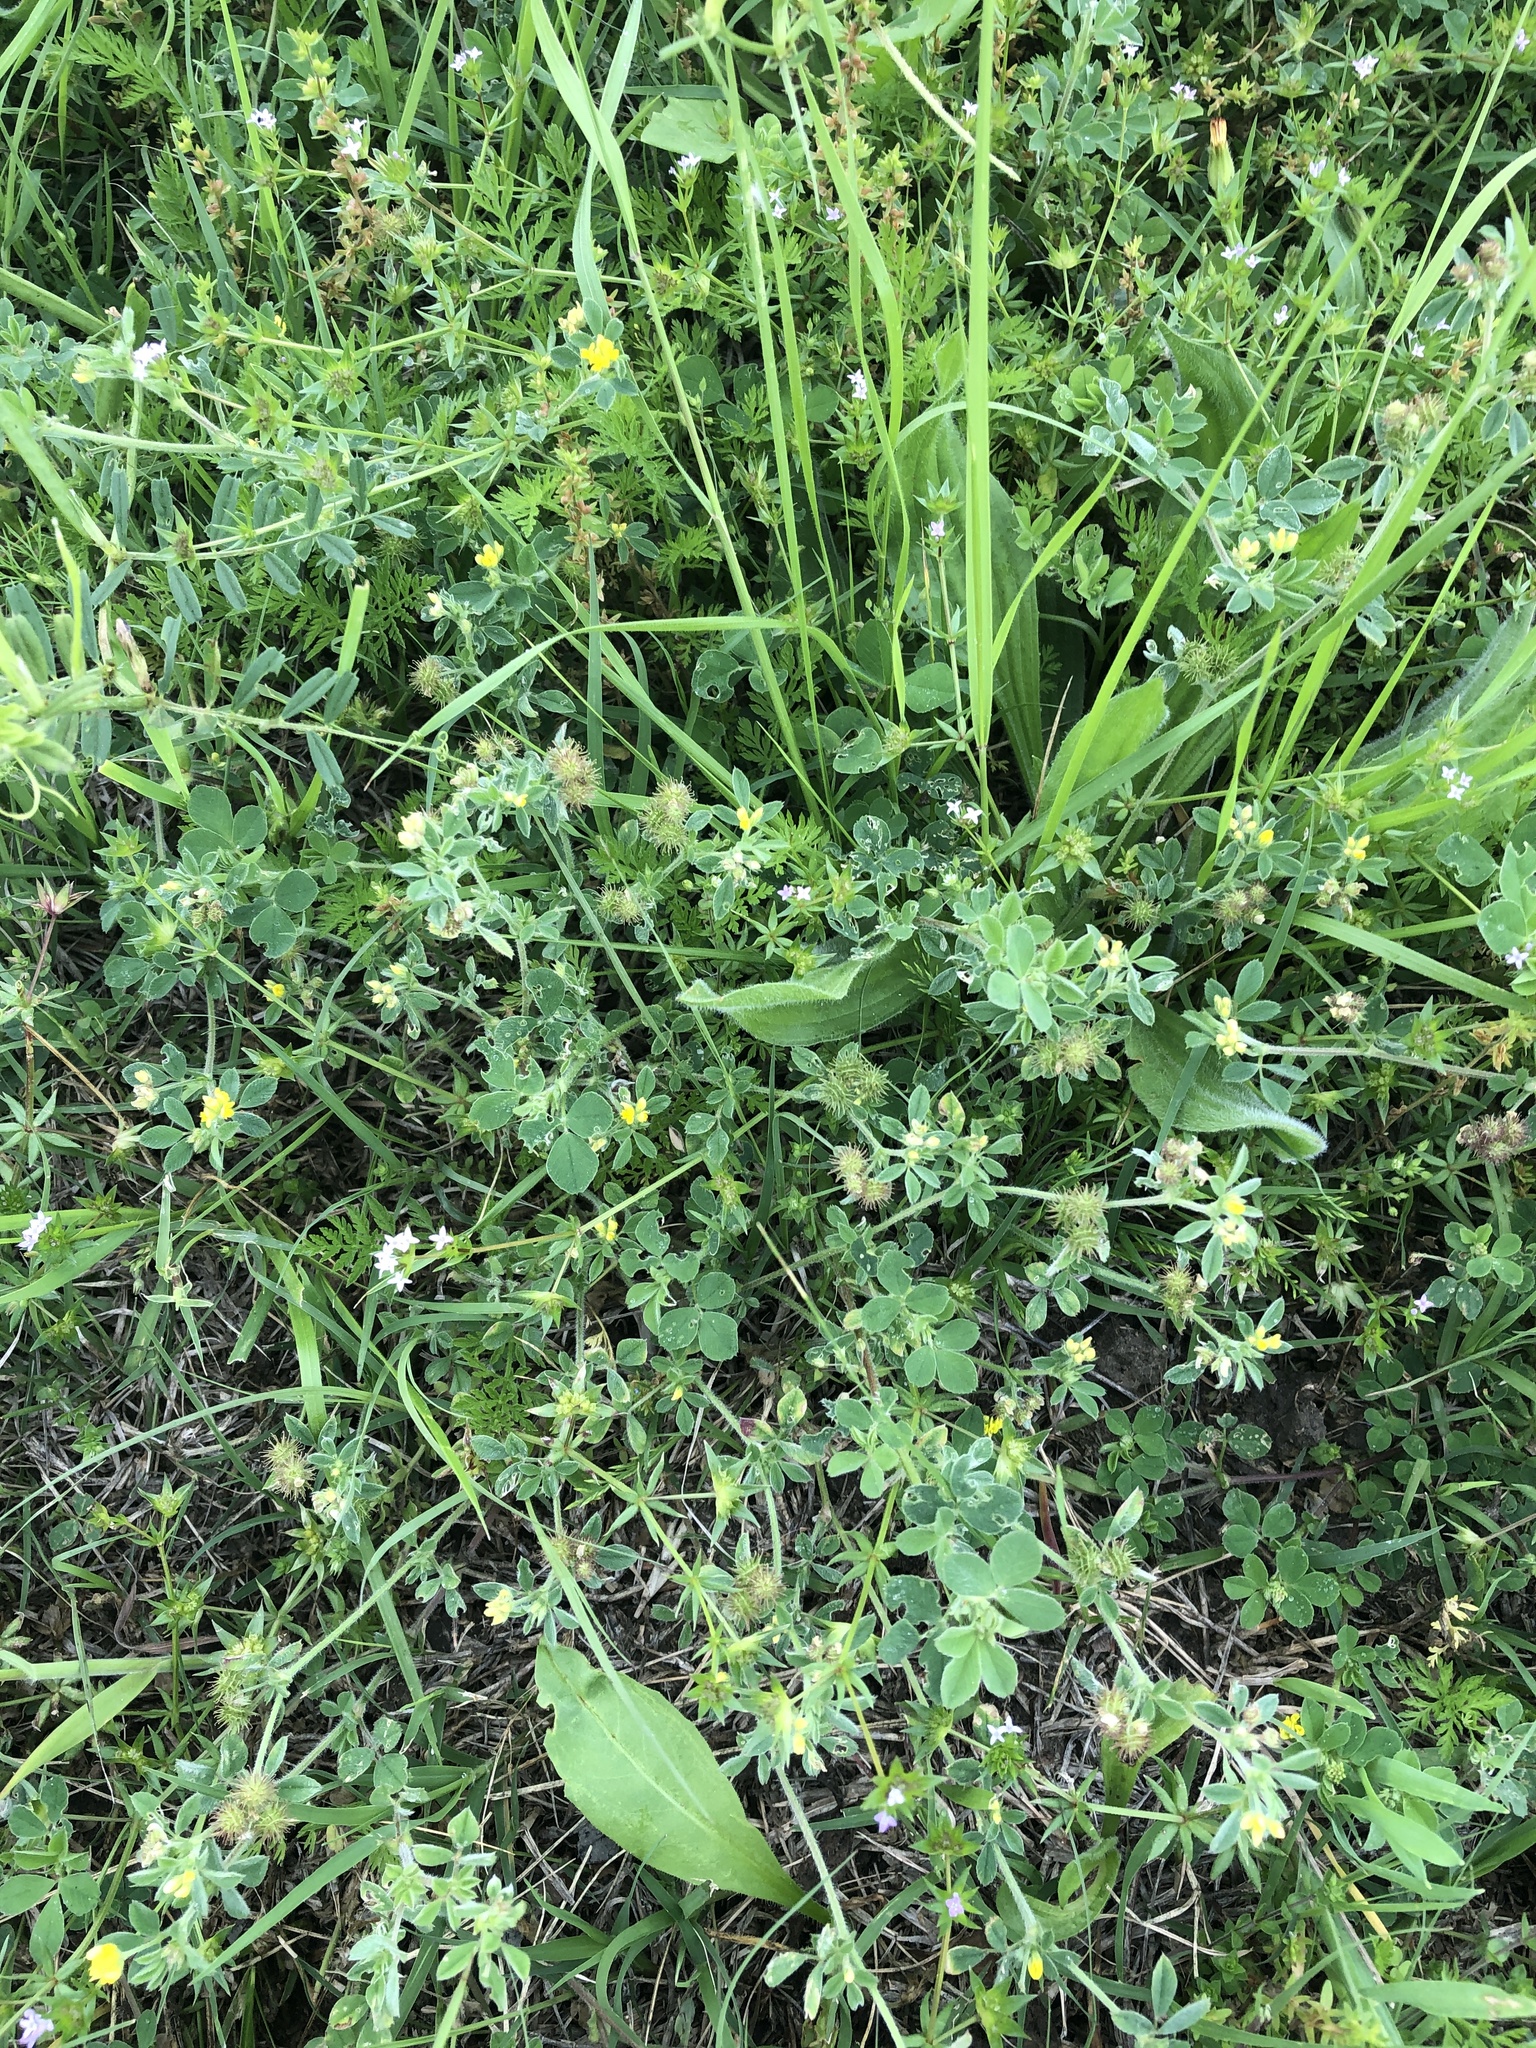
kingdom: Plantae
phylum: Tracheophyta
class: Magnoliopsida
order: Fabales
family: Fabaceae
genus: Medicago
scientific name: Medicago minima
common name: Little bur-clover
